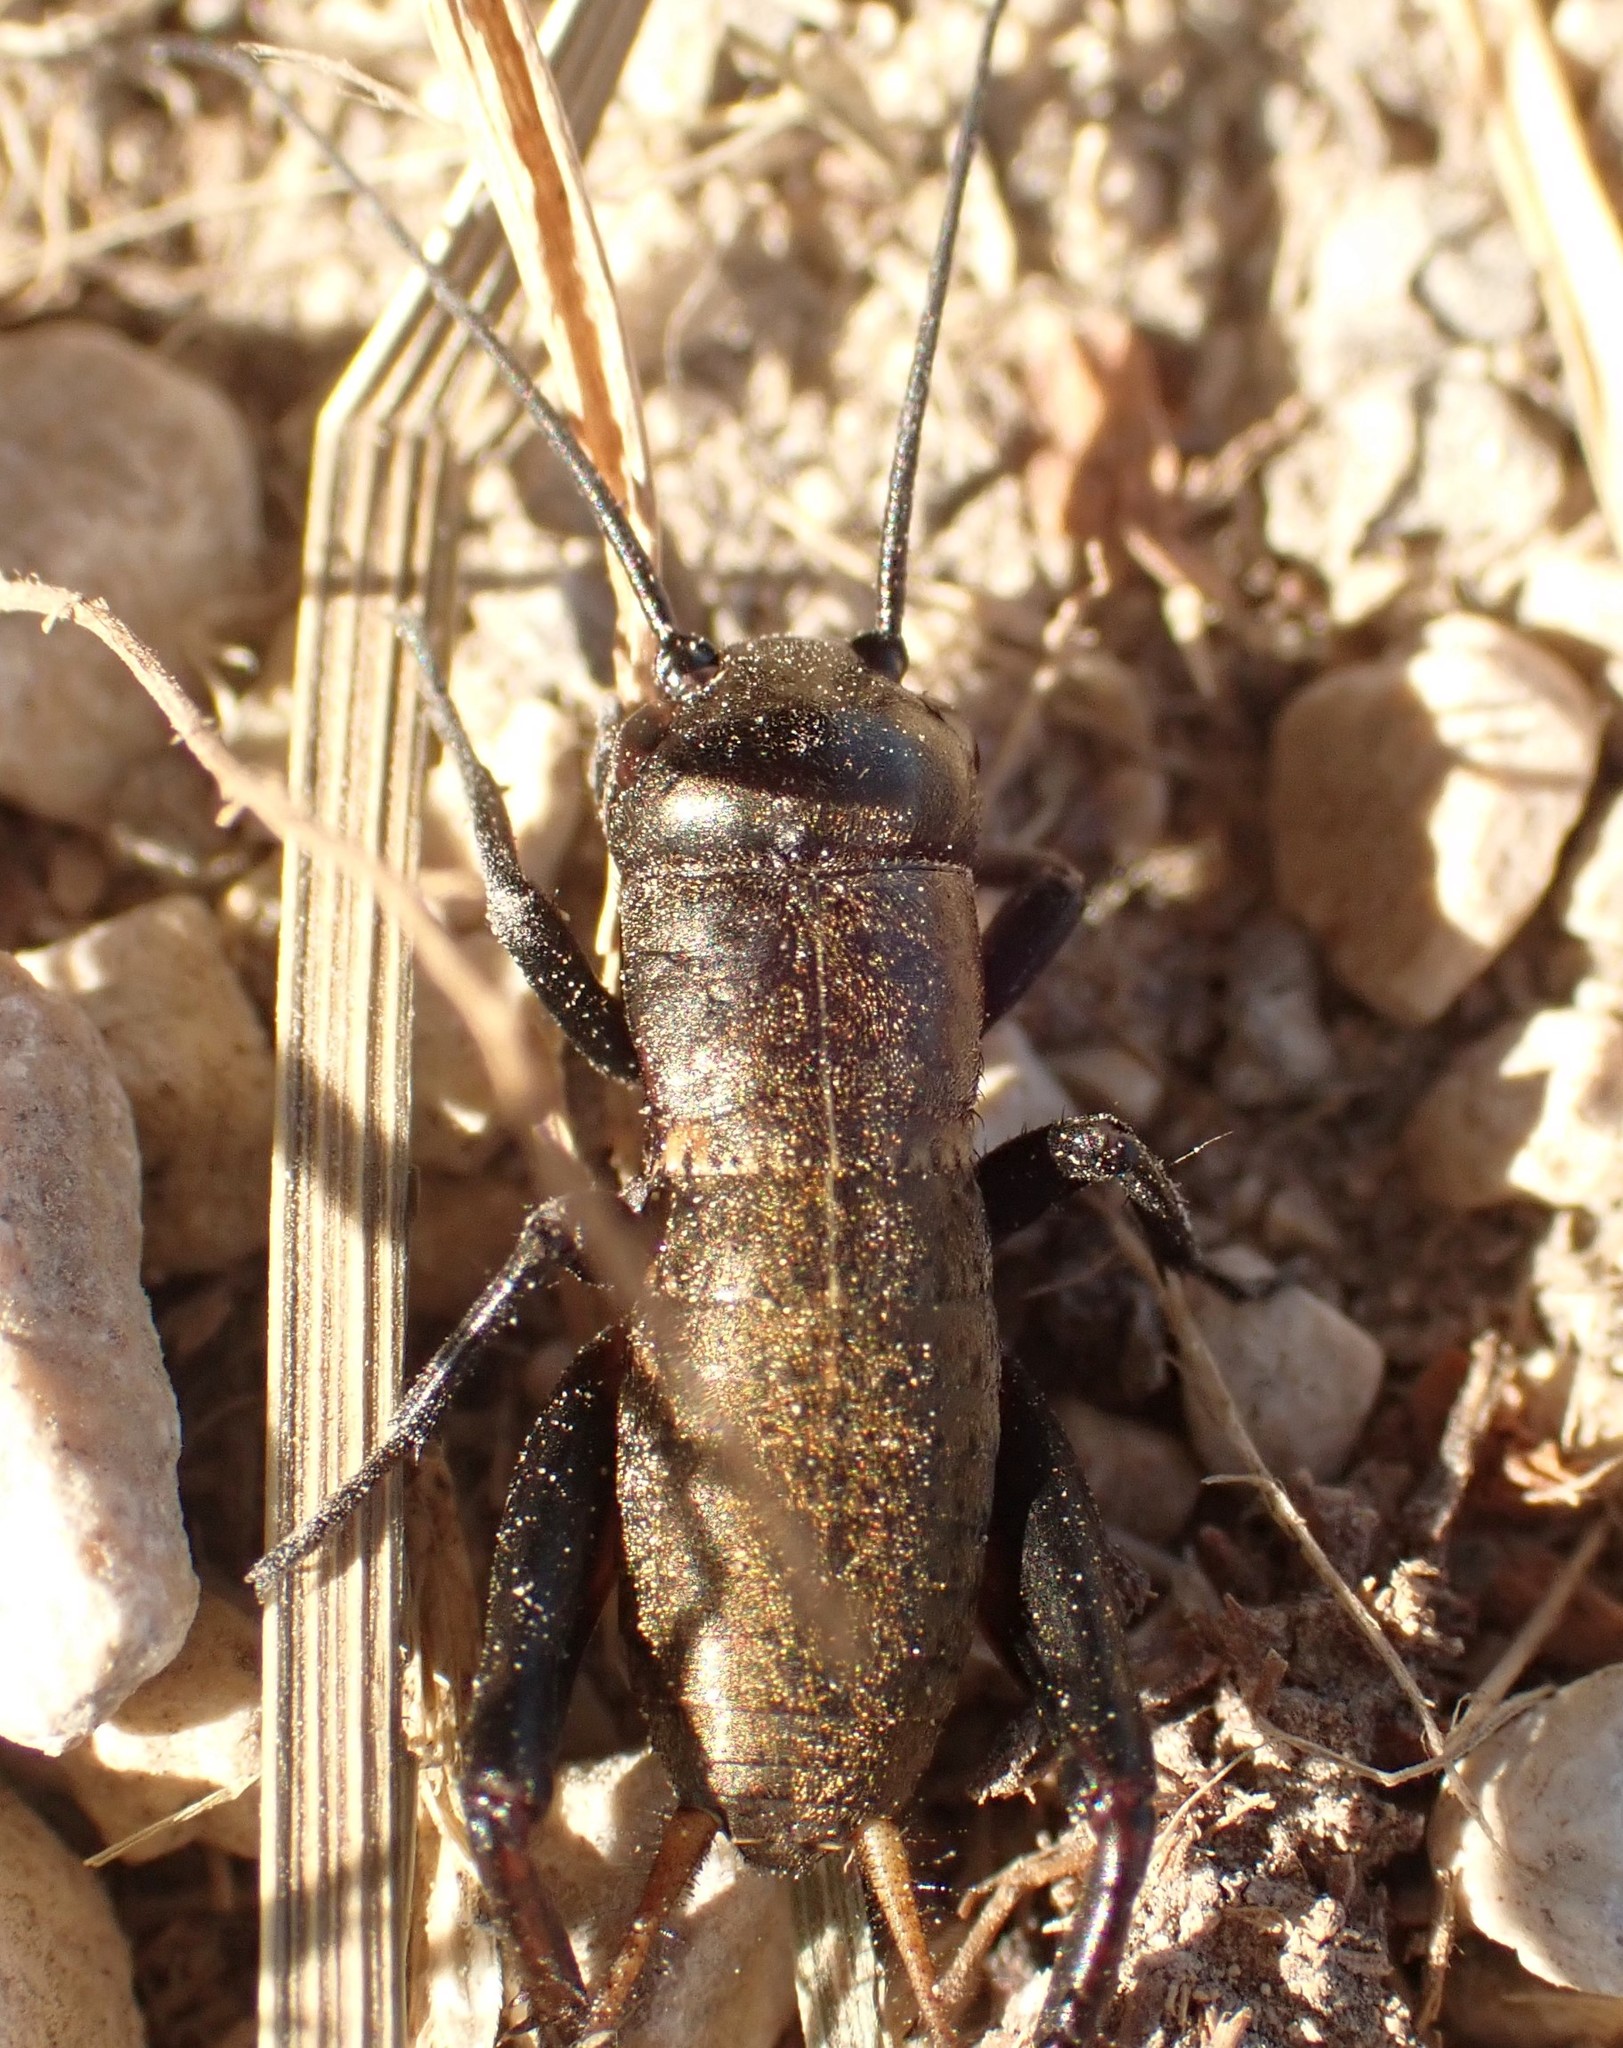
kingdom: Animalia
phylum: Arthropoda
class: Insecta
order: Orthoptera
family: Gryllidae
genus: Gryllus
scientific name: Gryllus campestris
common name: Field cricket
